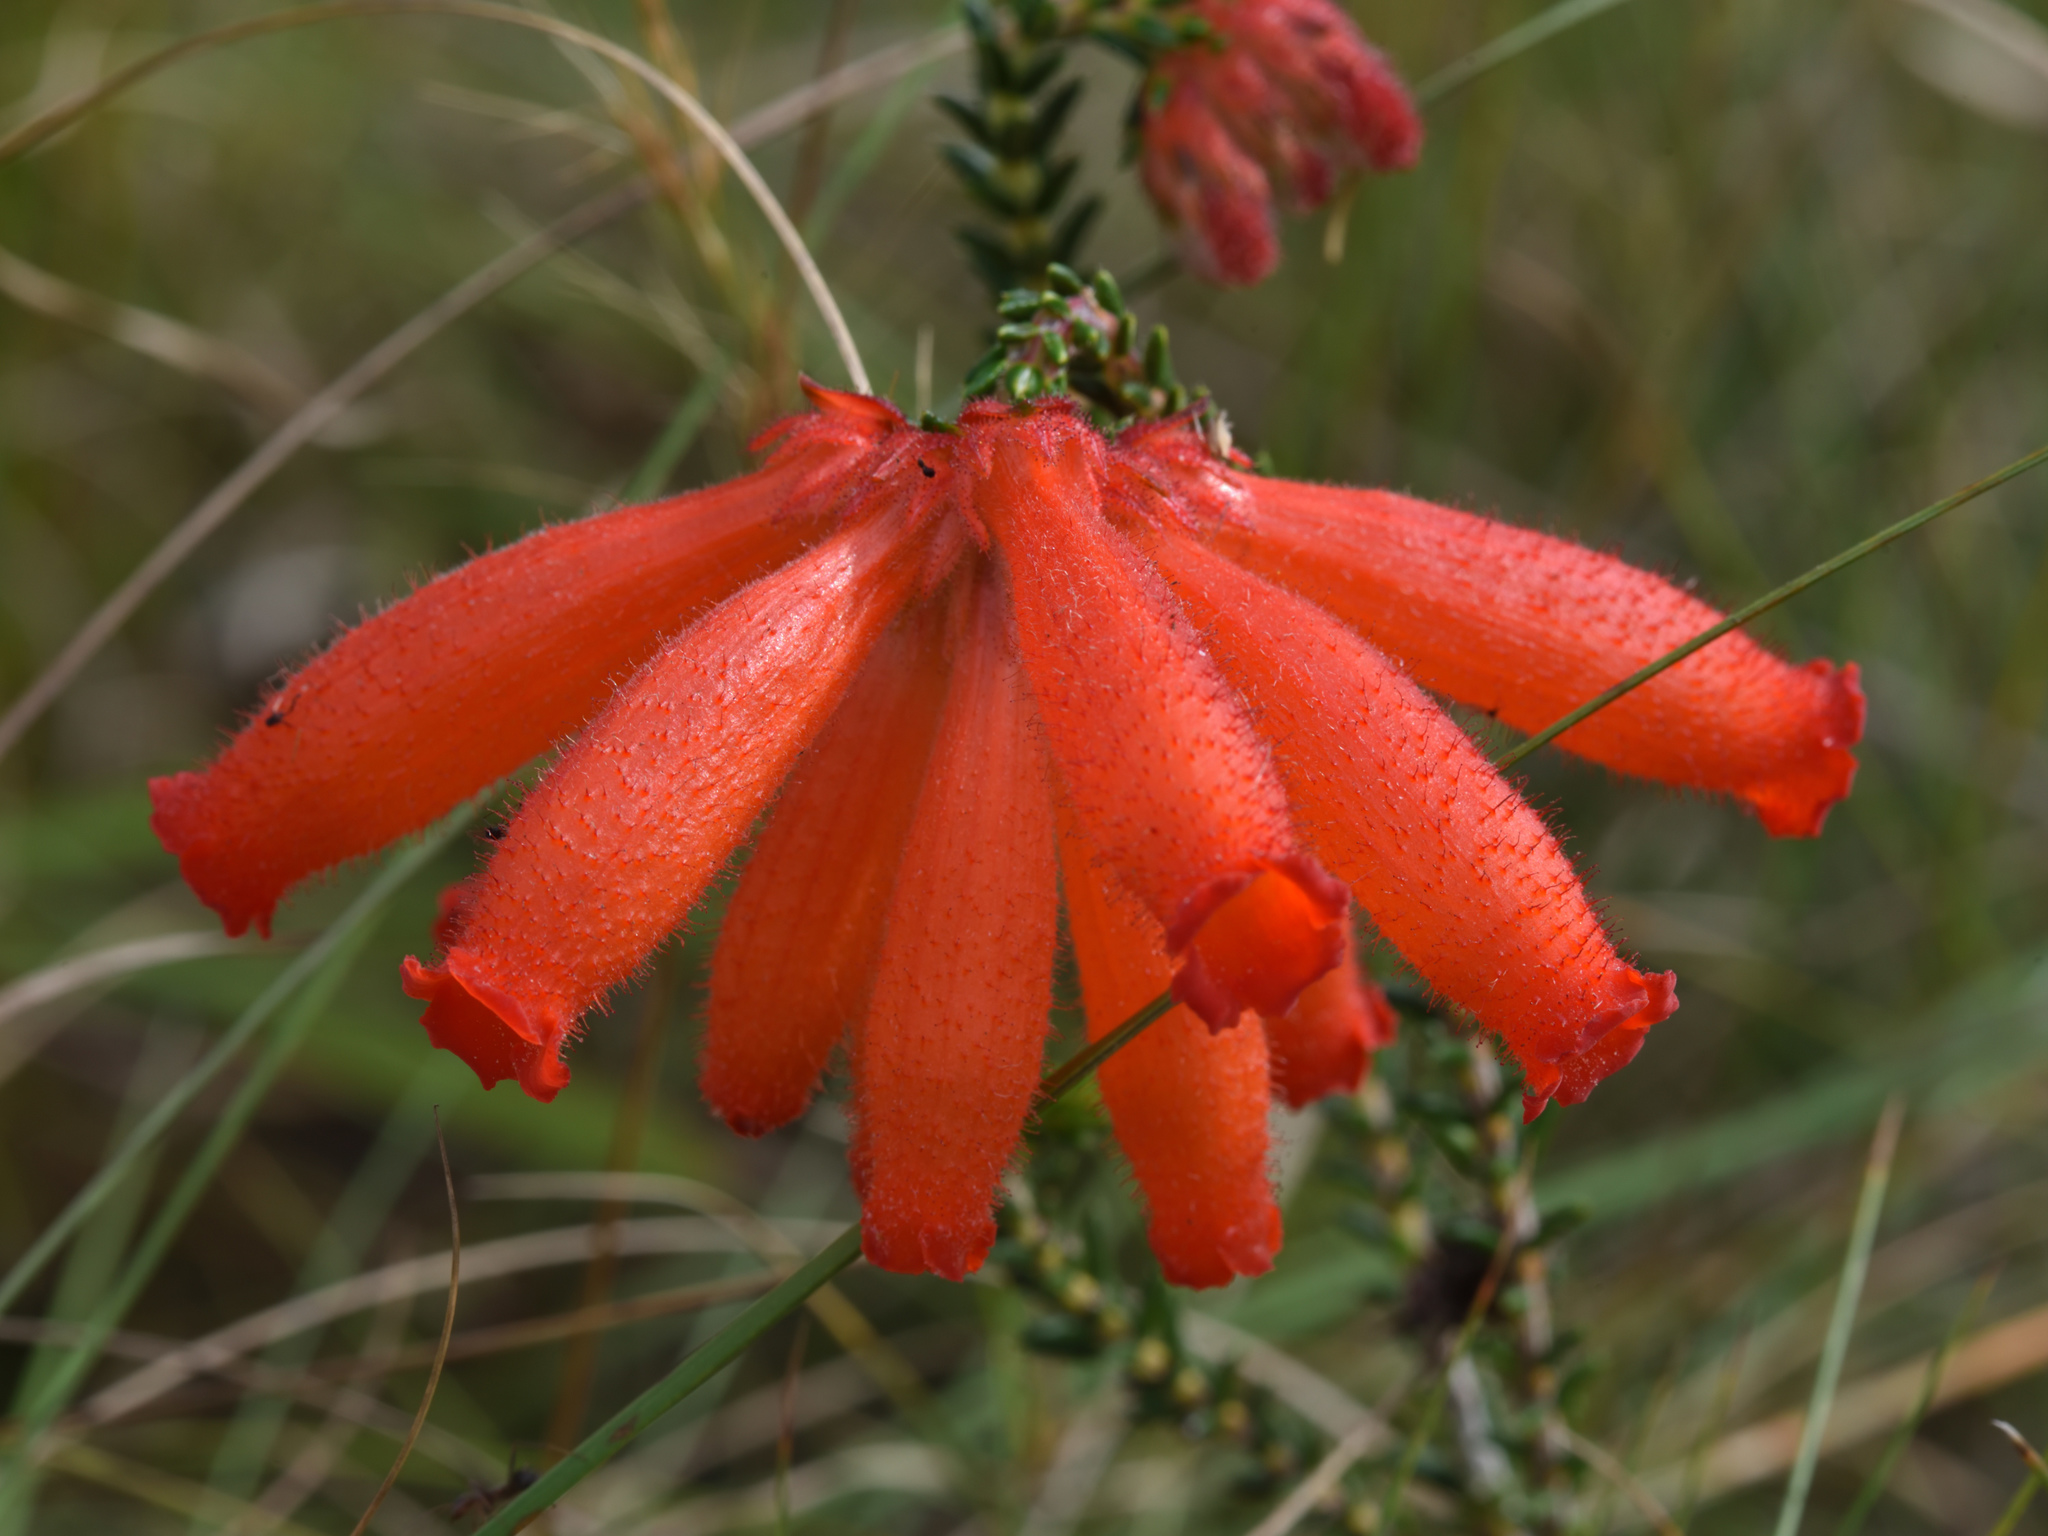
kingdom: Plantae
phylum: Tracheophyta
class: Magnoliopsida
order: Ericales
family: Ericaceae
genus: Erica
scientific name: Erica cerinthoides
